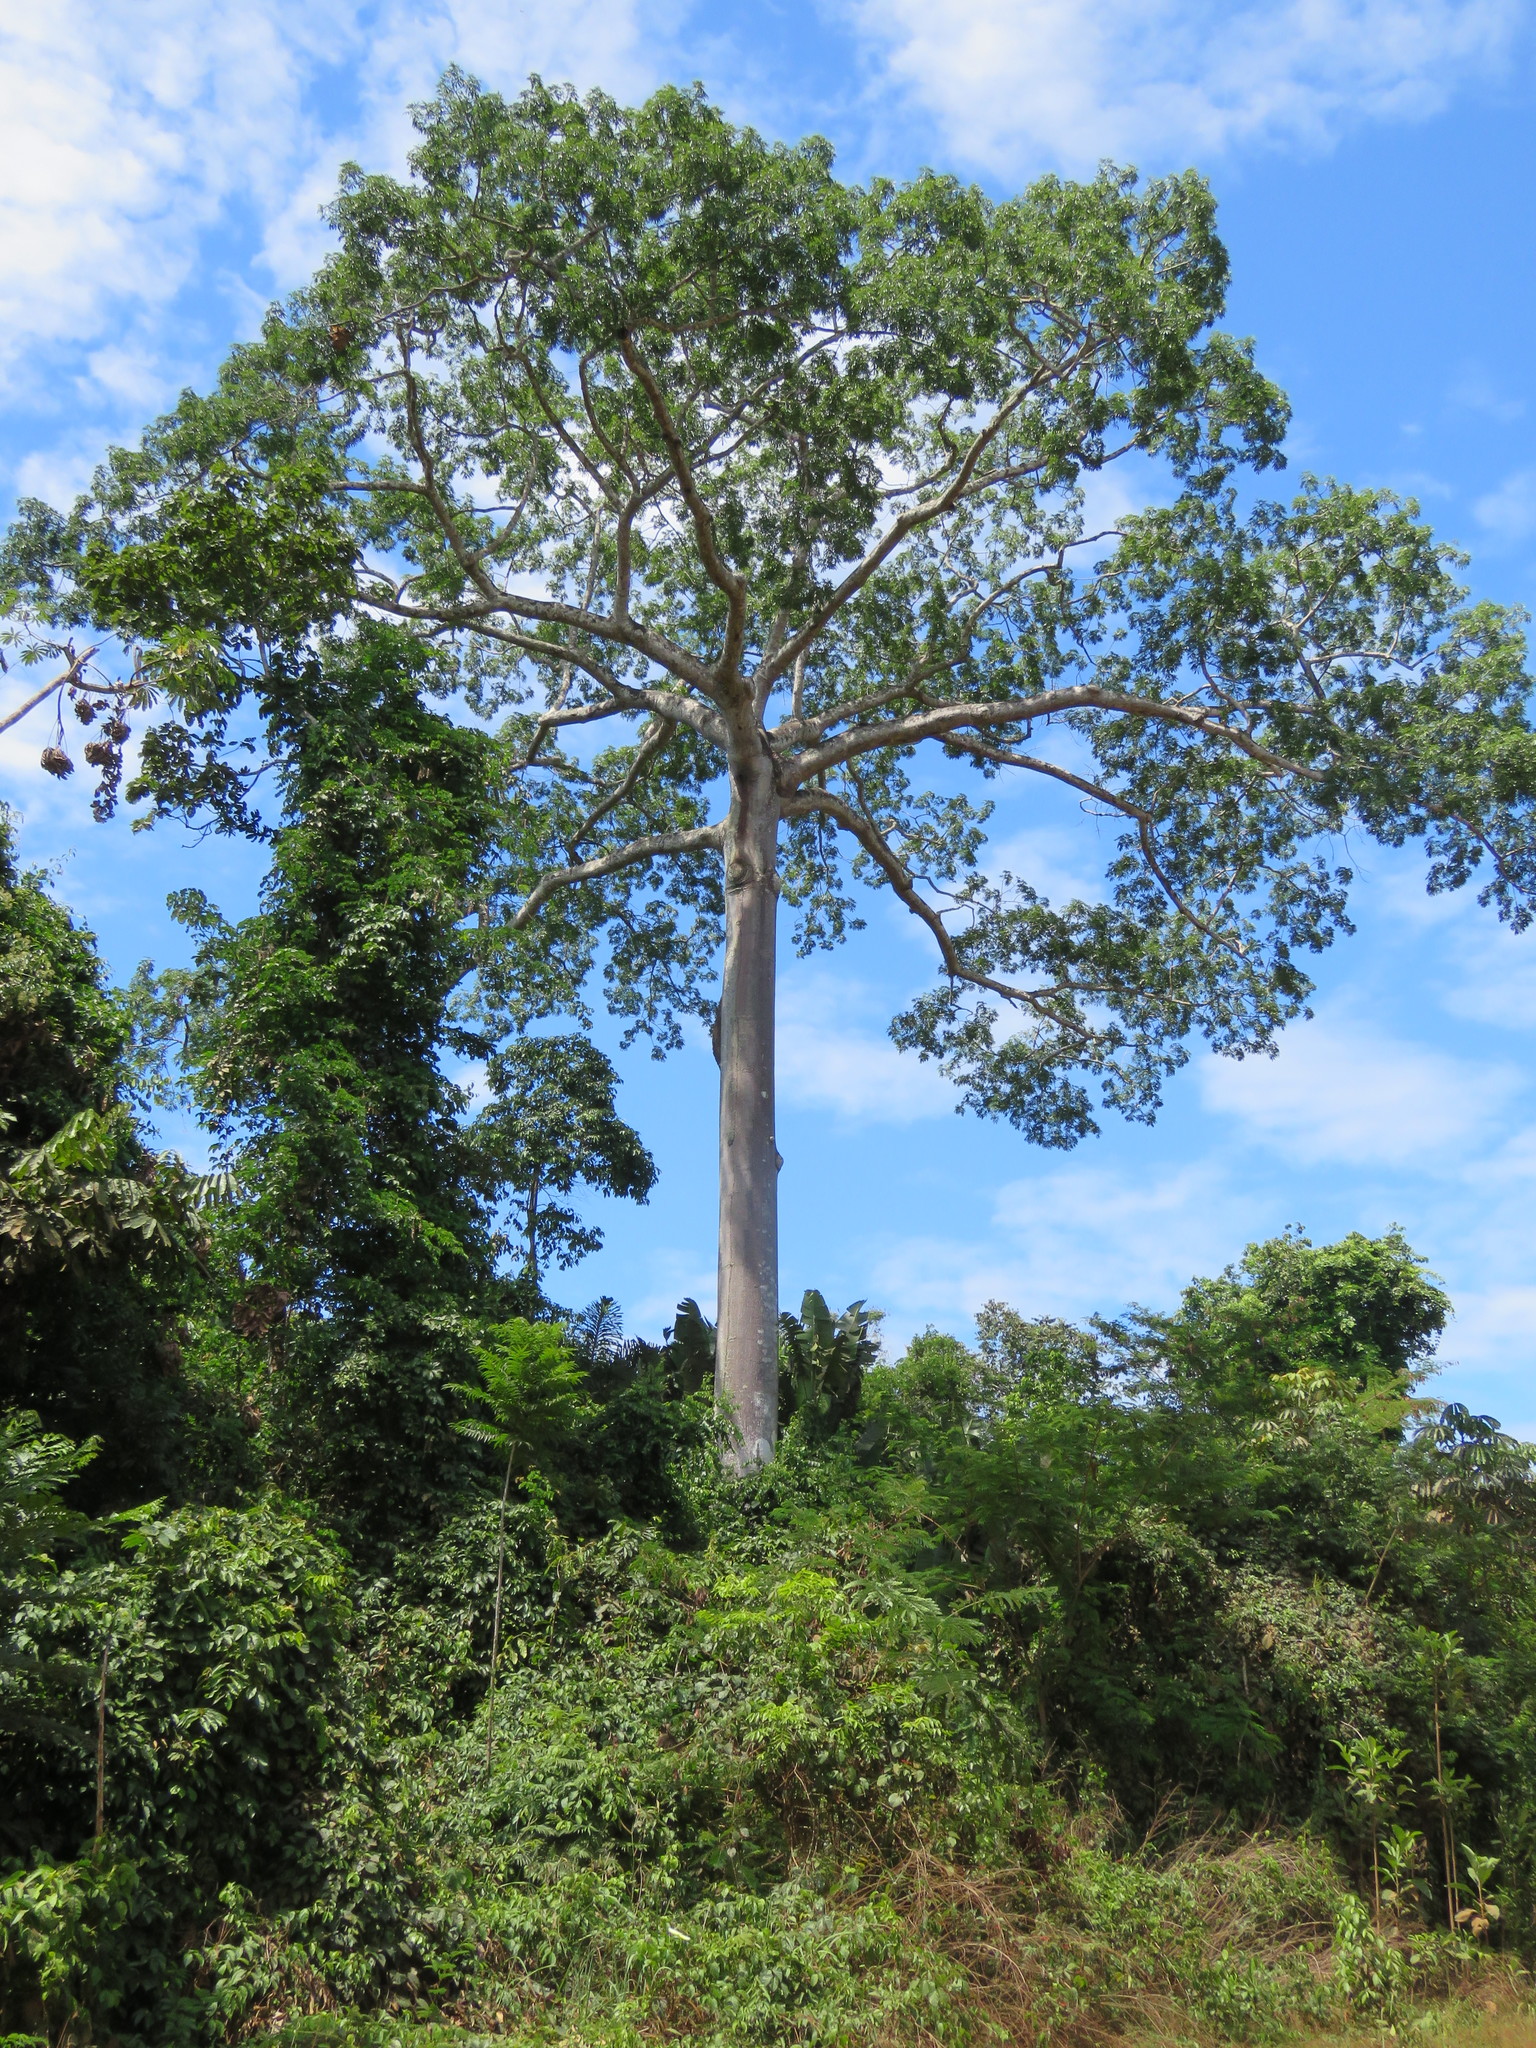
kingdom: Plantae
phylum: Tracheophyta
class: Magnoliopsida
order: Malvales
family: Malvaceae
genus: Ceiba
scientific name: Ceiba pentandra
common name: Kapok
